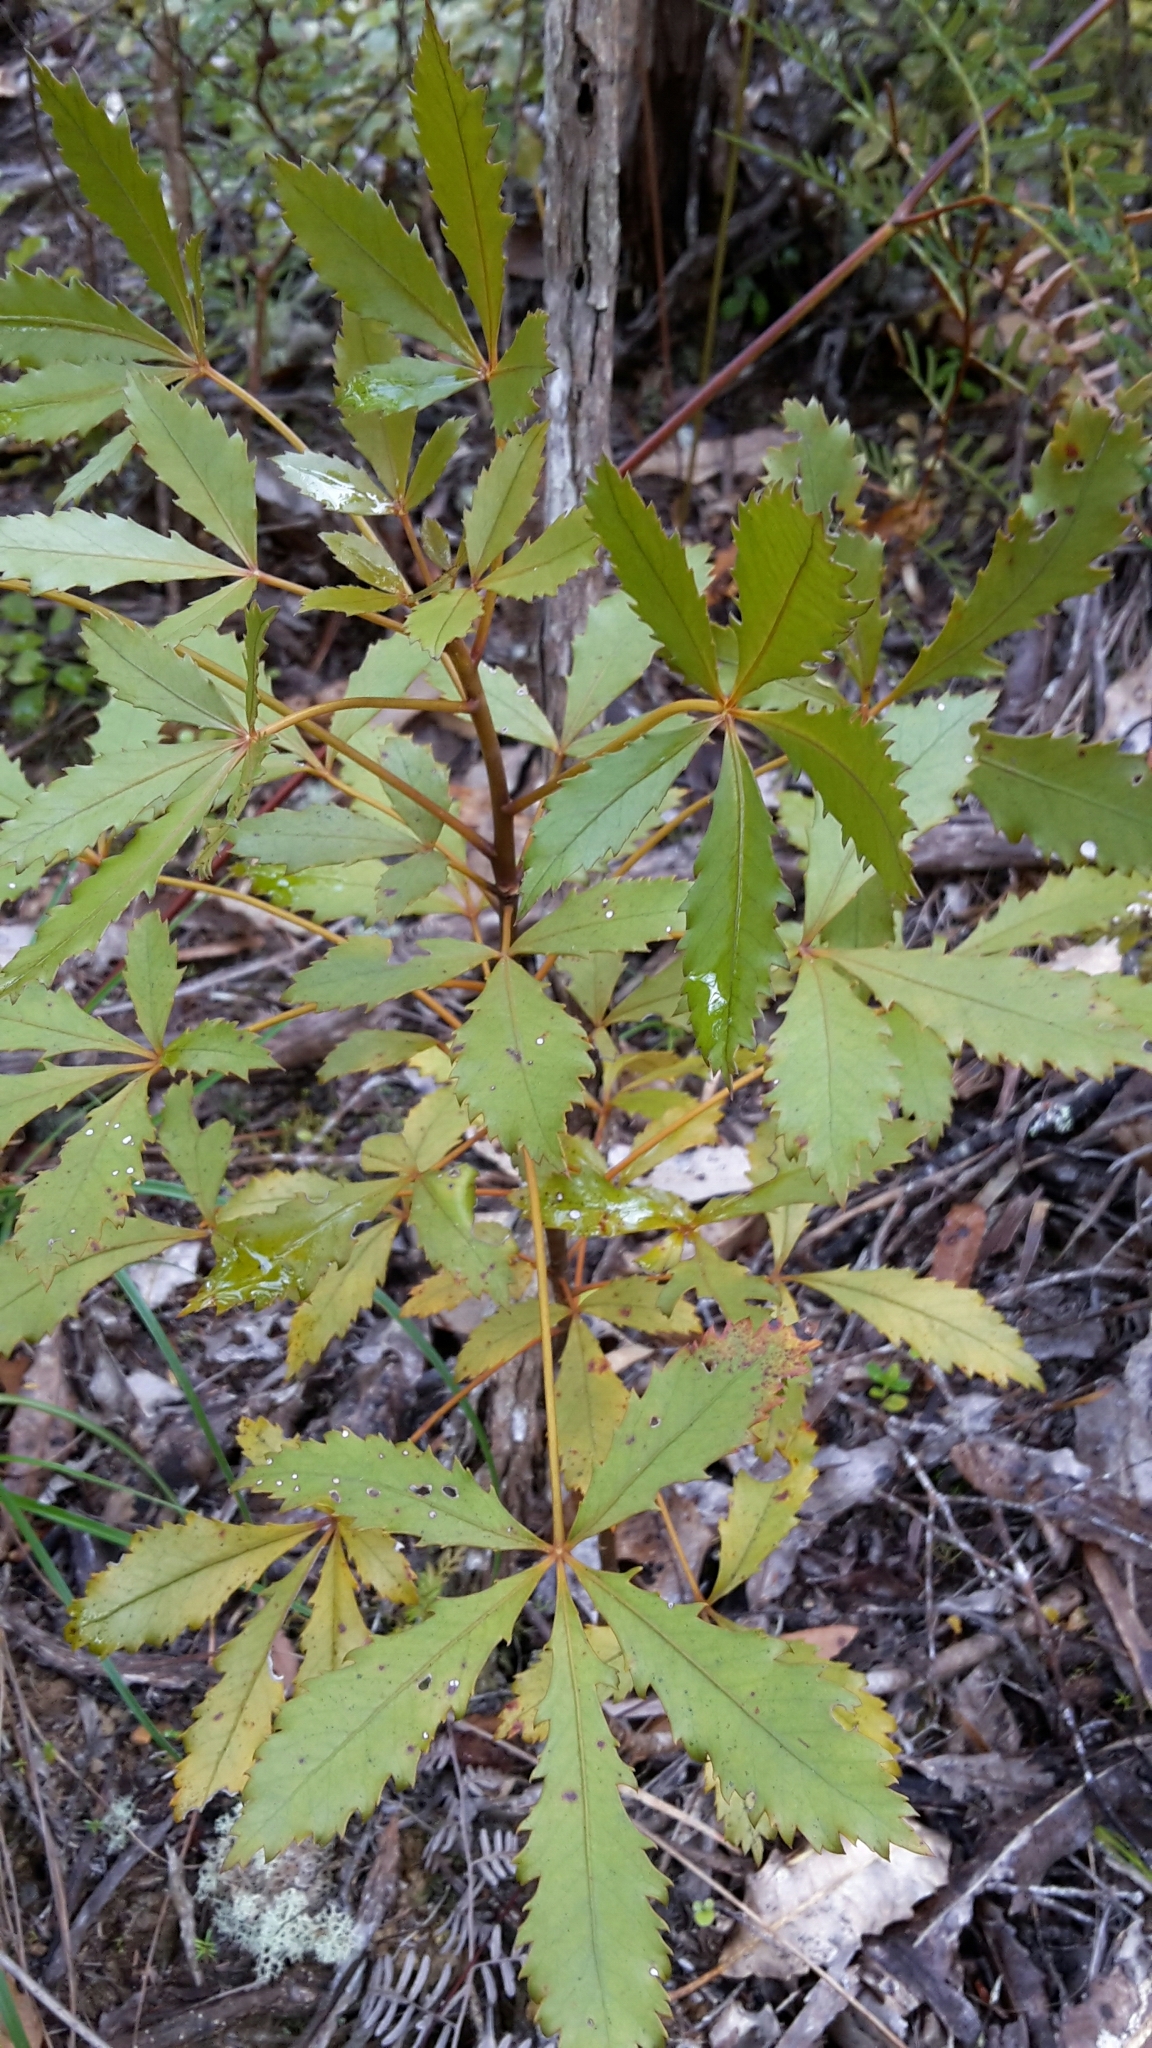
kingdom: Plantae
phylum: Tracheophyta
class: Magnoliopsida
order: Apiales
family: Araliaceae
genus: Pseudopanax
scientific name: Pseudopanax discolor
